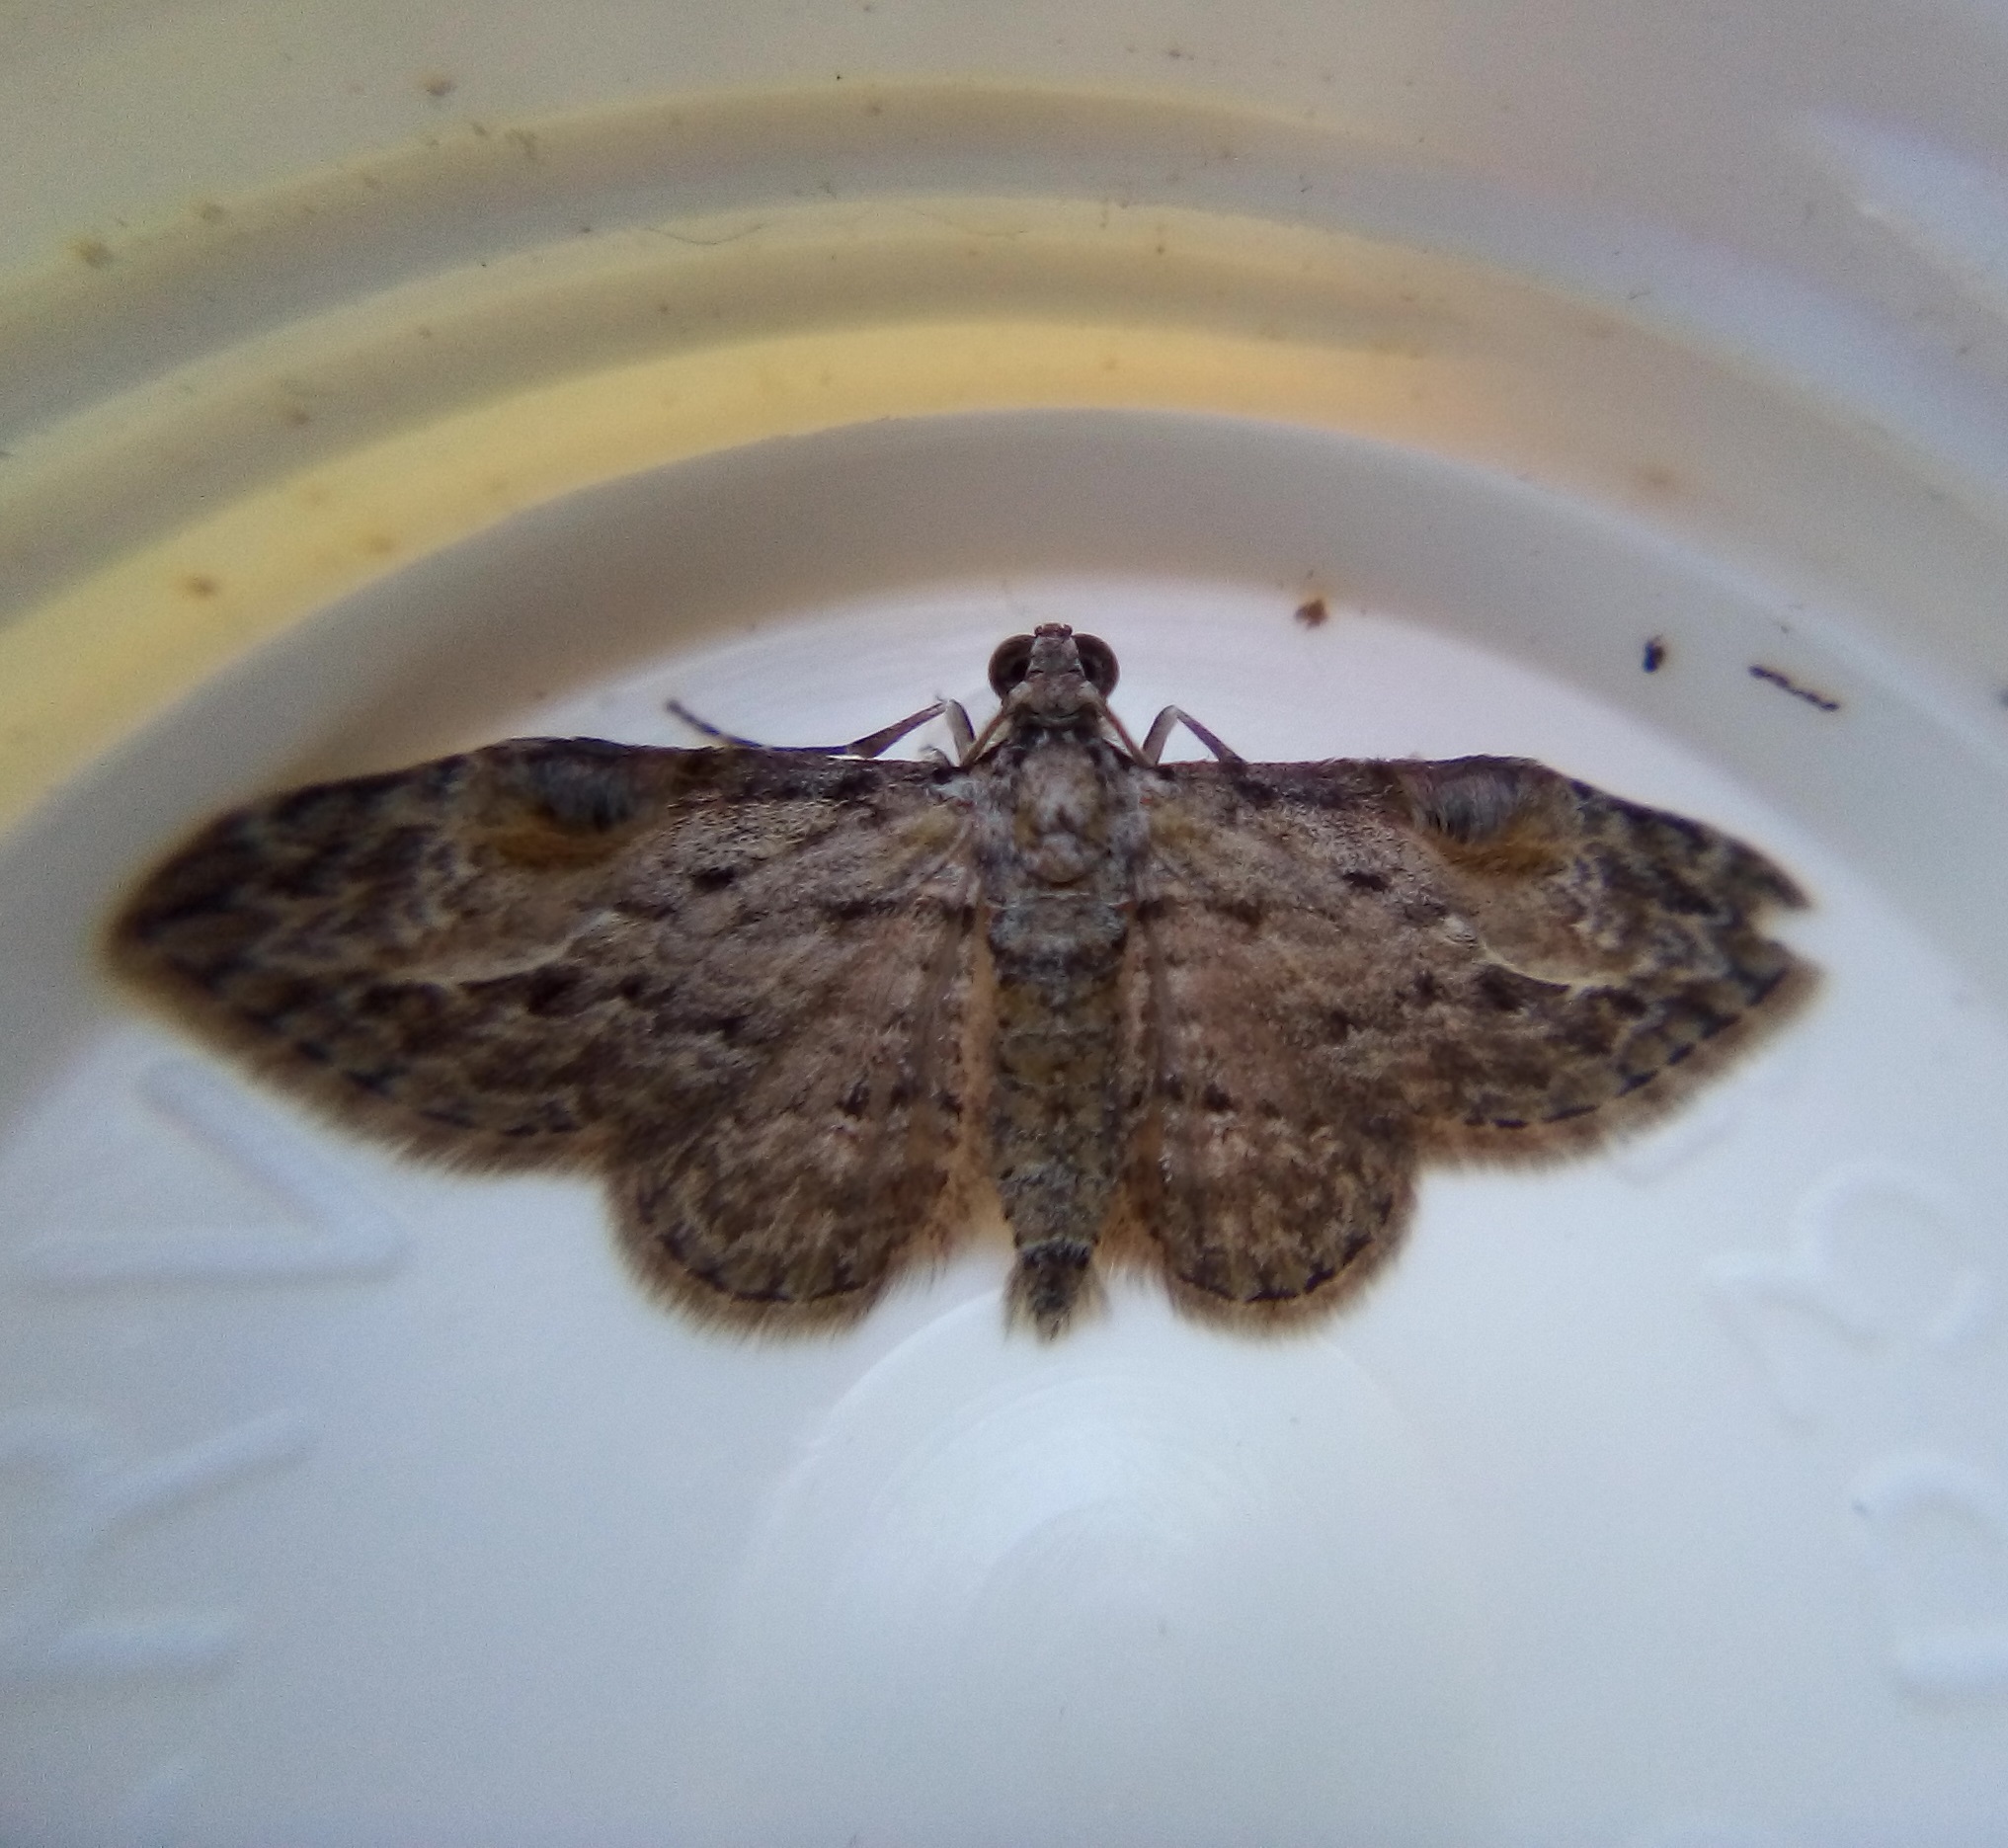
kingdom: Animalia
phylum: Arthropoda
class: Insecta
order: Lepidoptera
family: Geometridae
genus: Chloroclystis
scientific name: Chloroclystis insigillata
